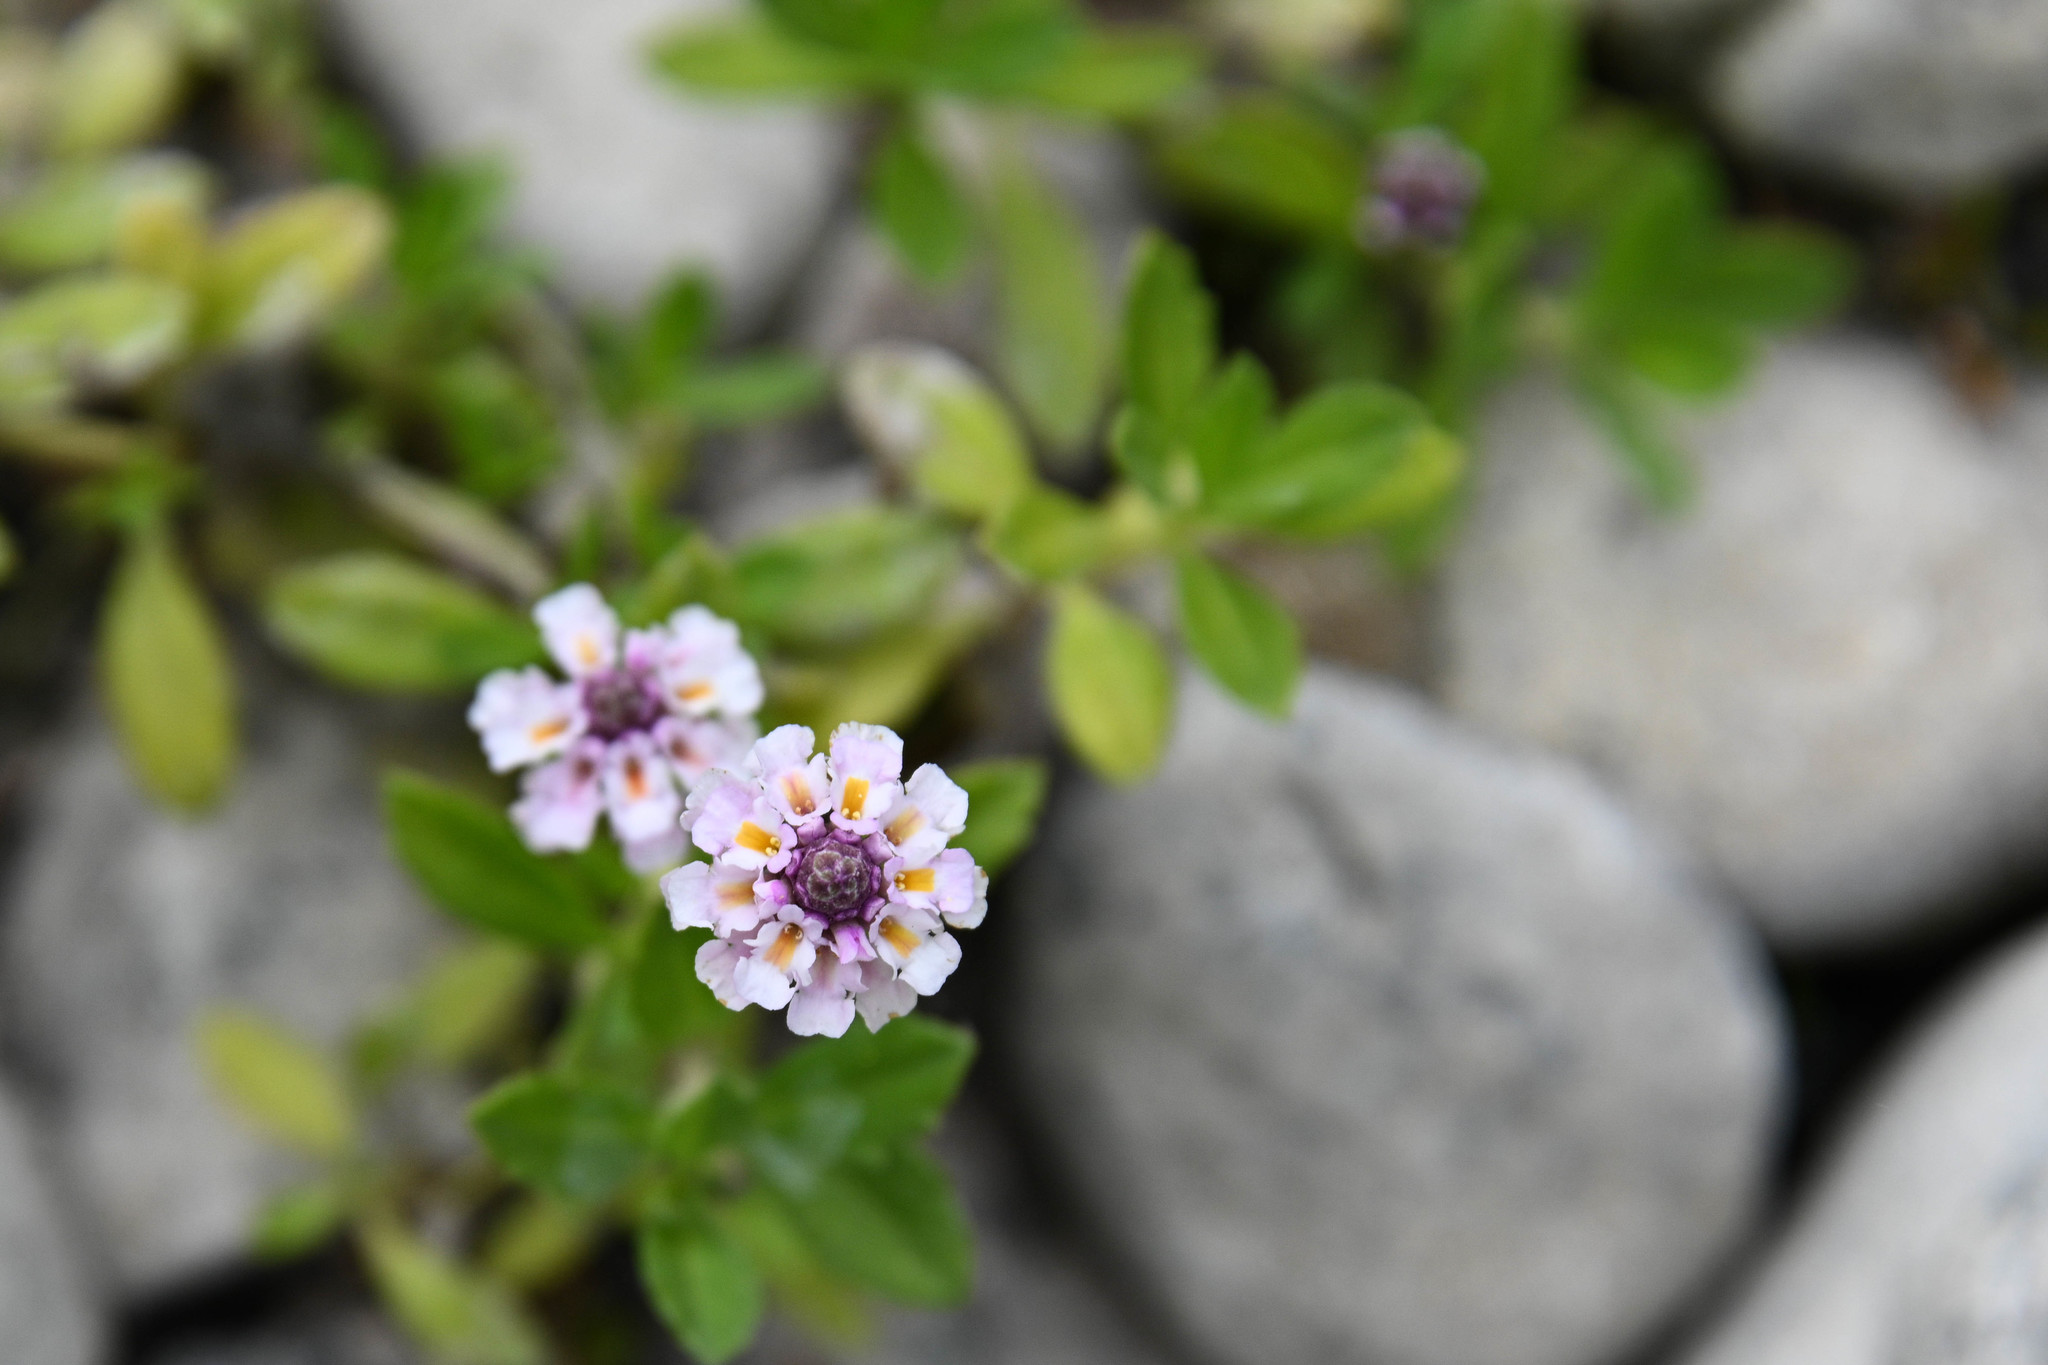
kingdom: Plantae
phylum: Tracheophyta
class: Magnoliopsida
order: Lamiales
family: Verbenaceae
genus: Phyla
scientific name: Phyla nodiflora
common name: Frogfruit
